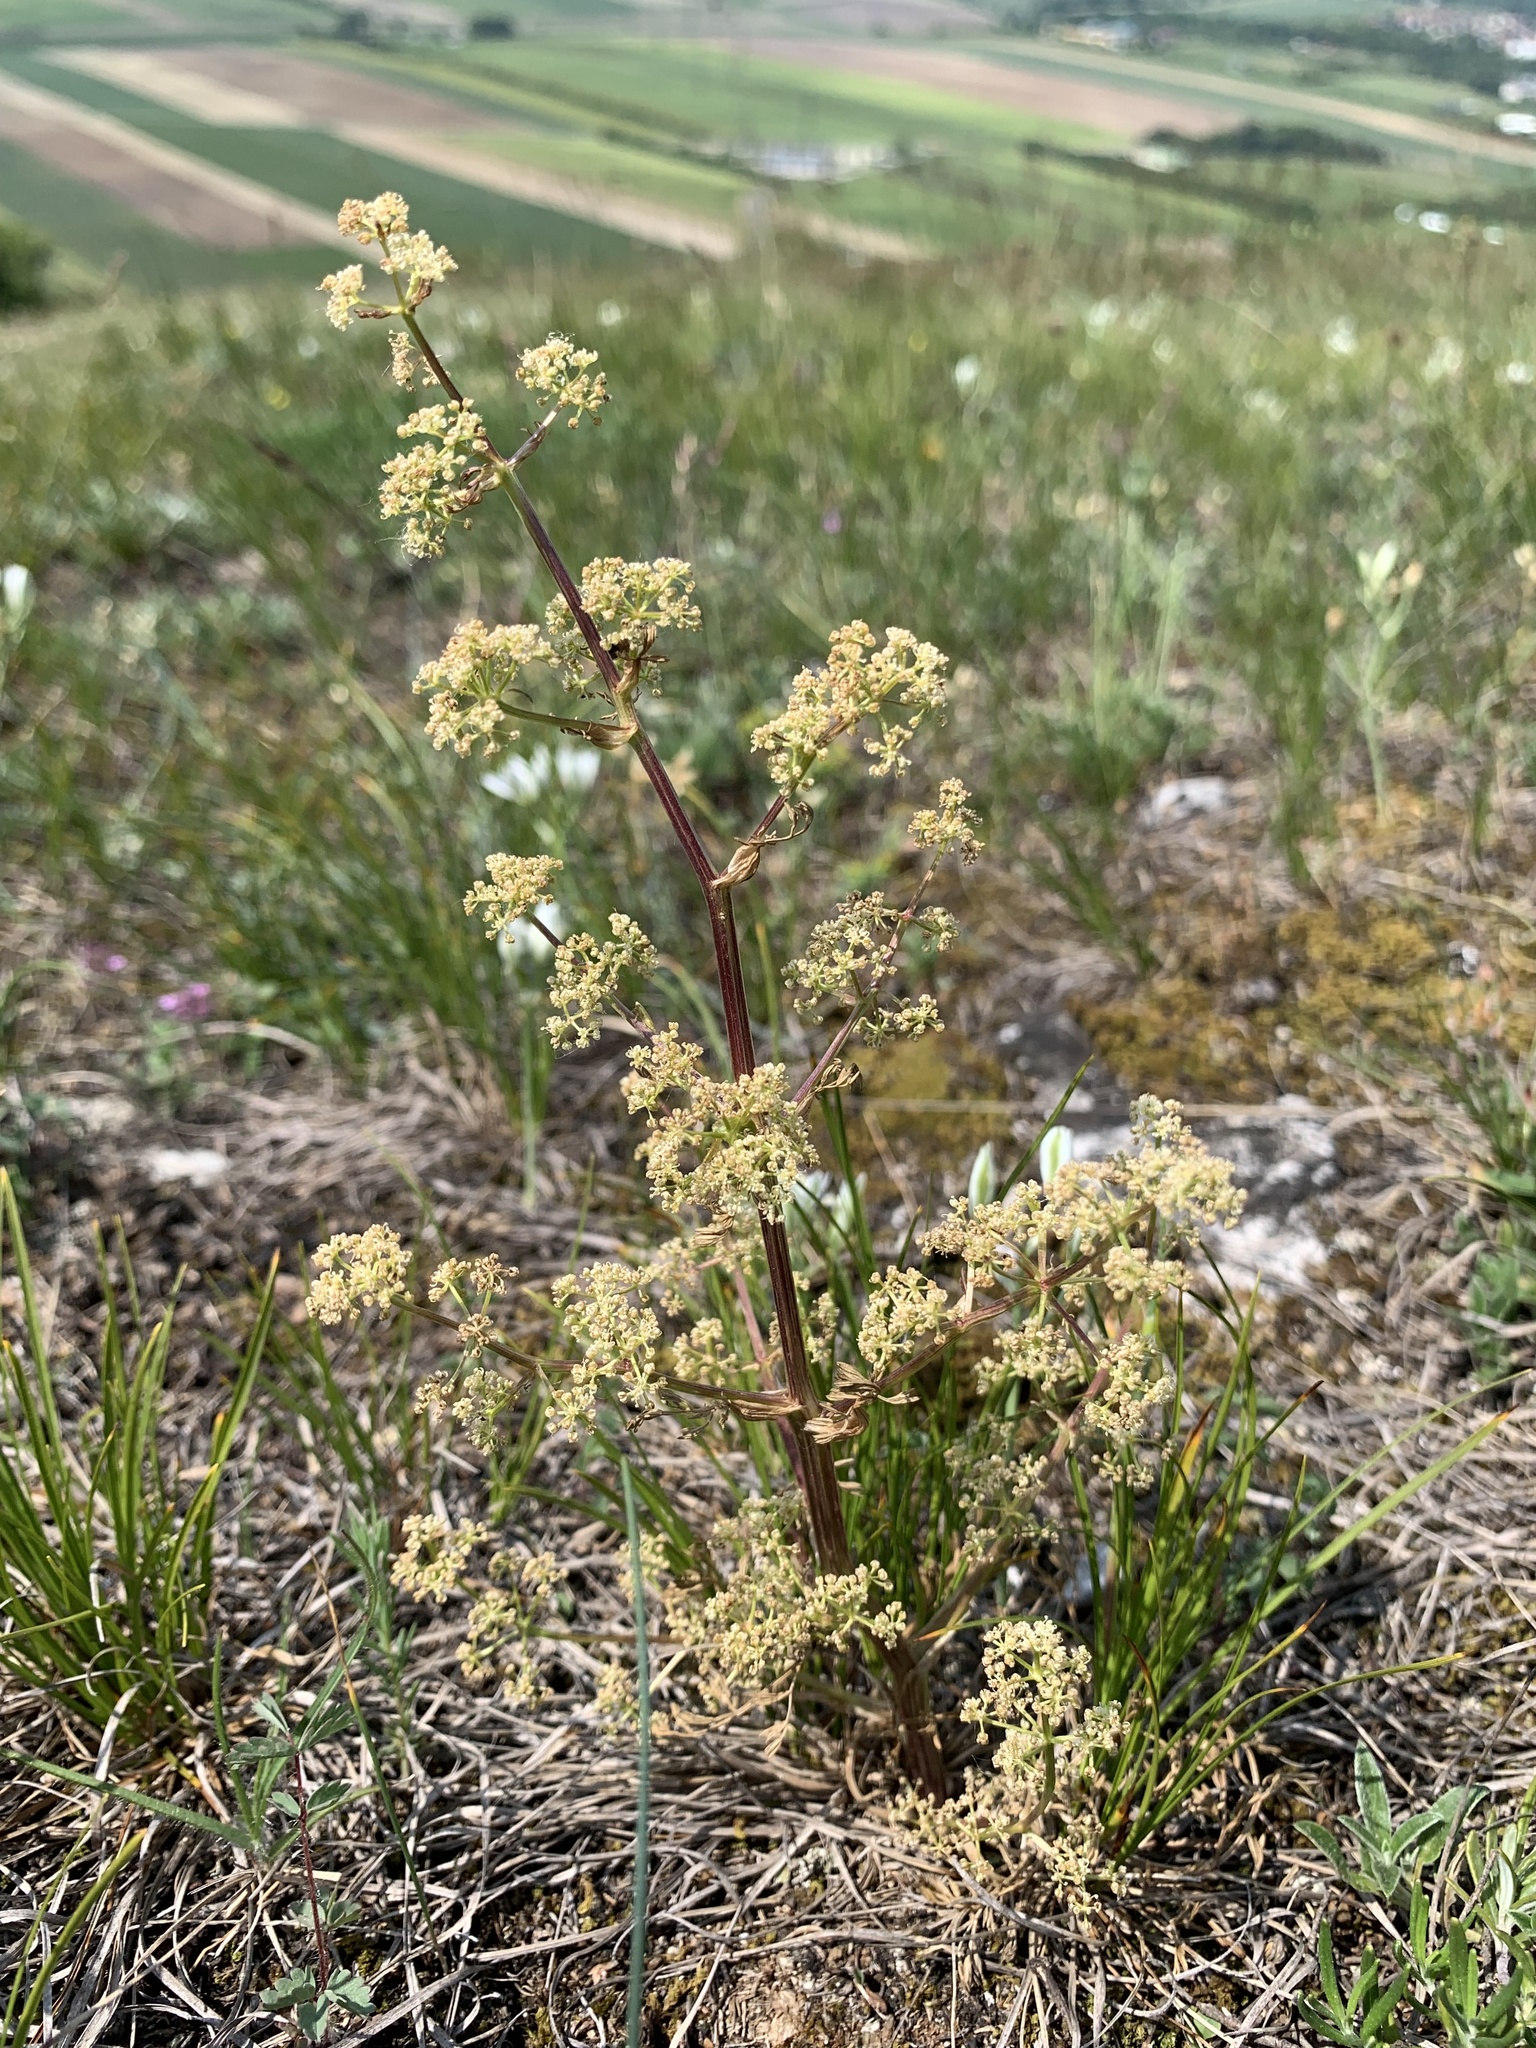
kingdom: Plantae
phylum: Tracheophyta
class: Magnoliopsida
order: Apiales
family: Apiaceae
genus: Trinia
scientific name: Trinia glauca
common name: Honewort
